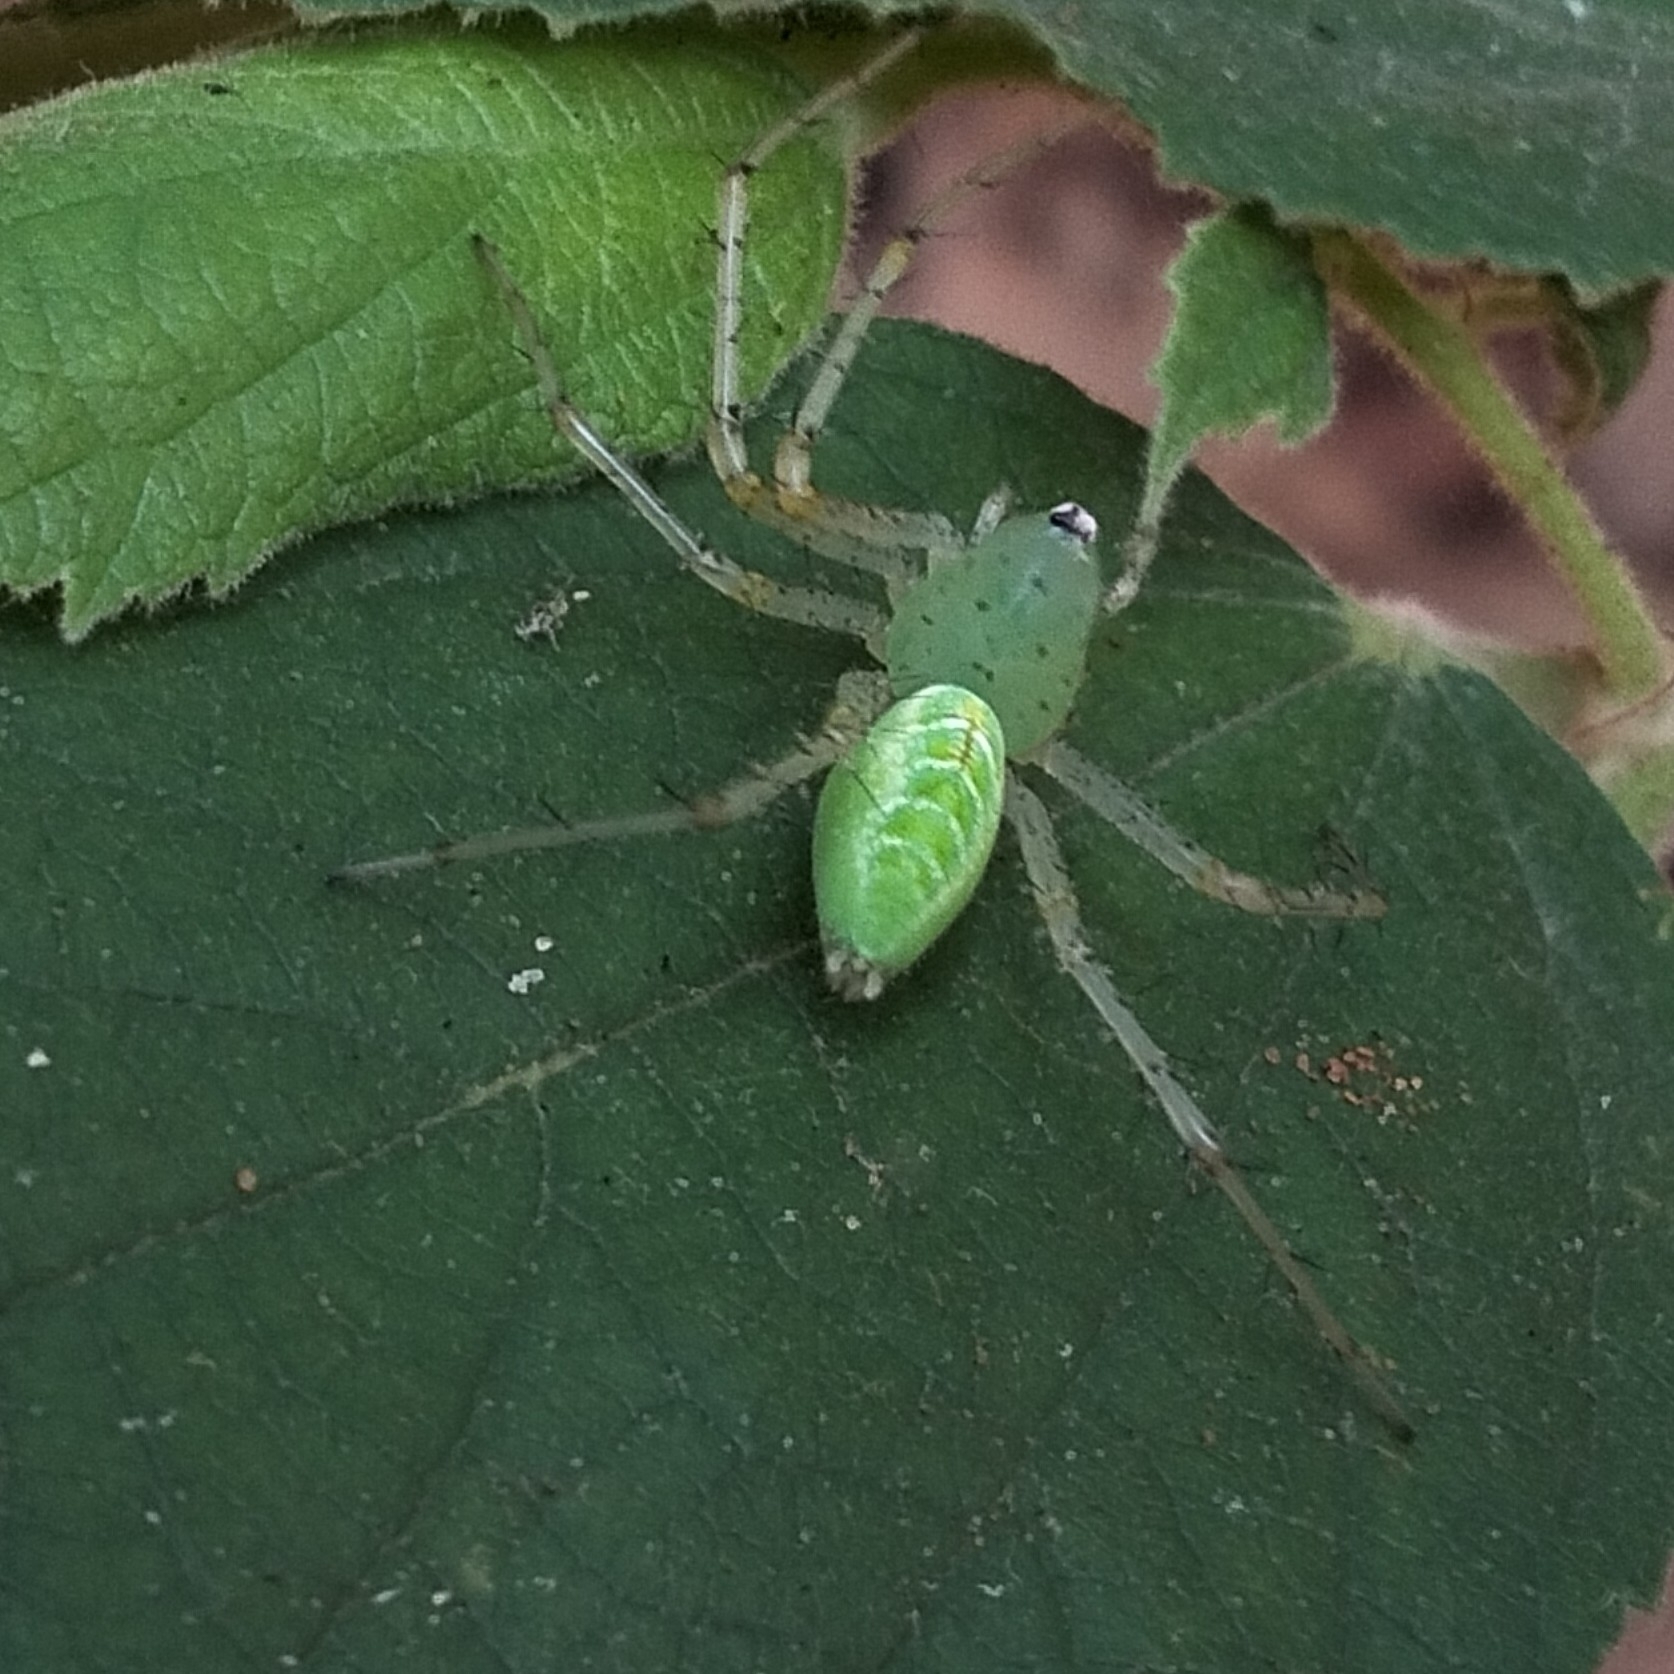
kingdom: Animalia
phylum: Arthropoda
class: Arachnida
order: Araneae
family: Oxyopidae
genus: Peucetia
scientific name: Peucetia viridana
